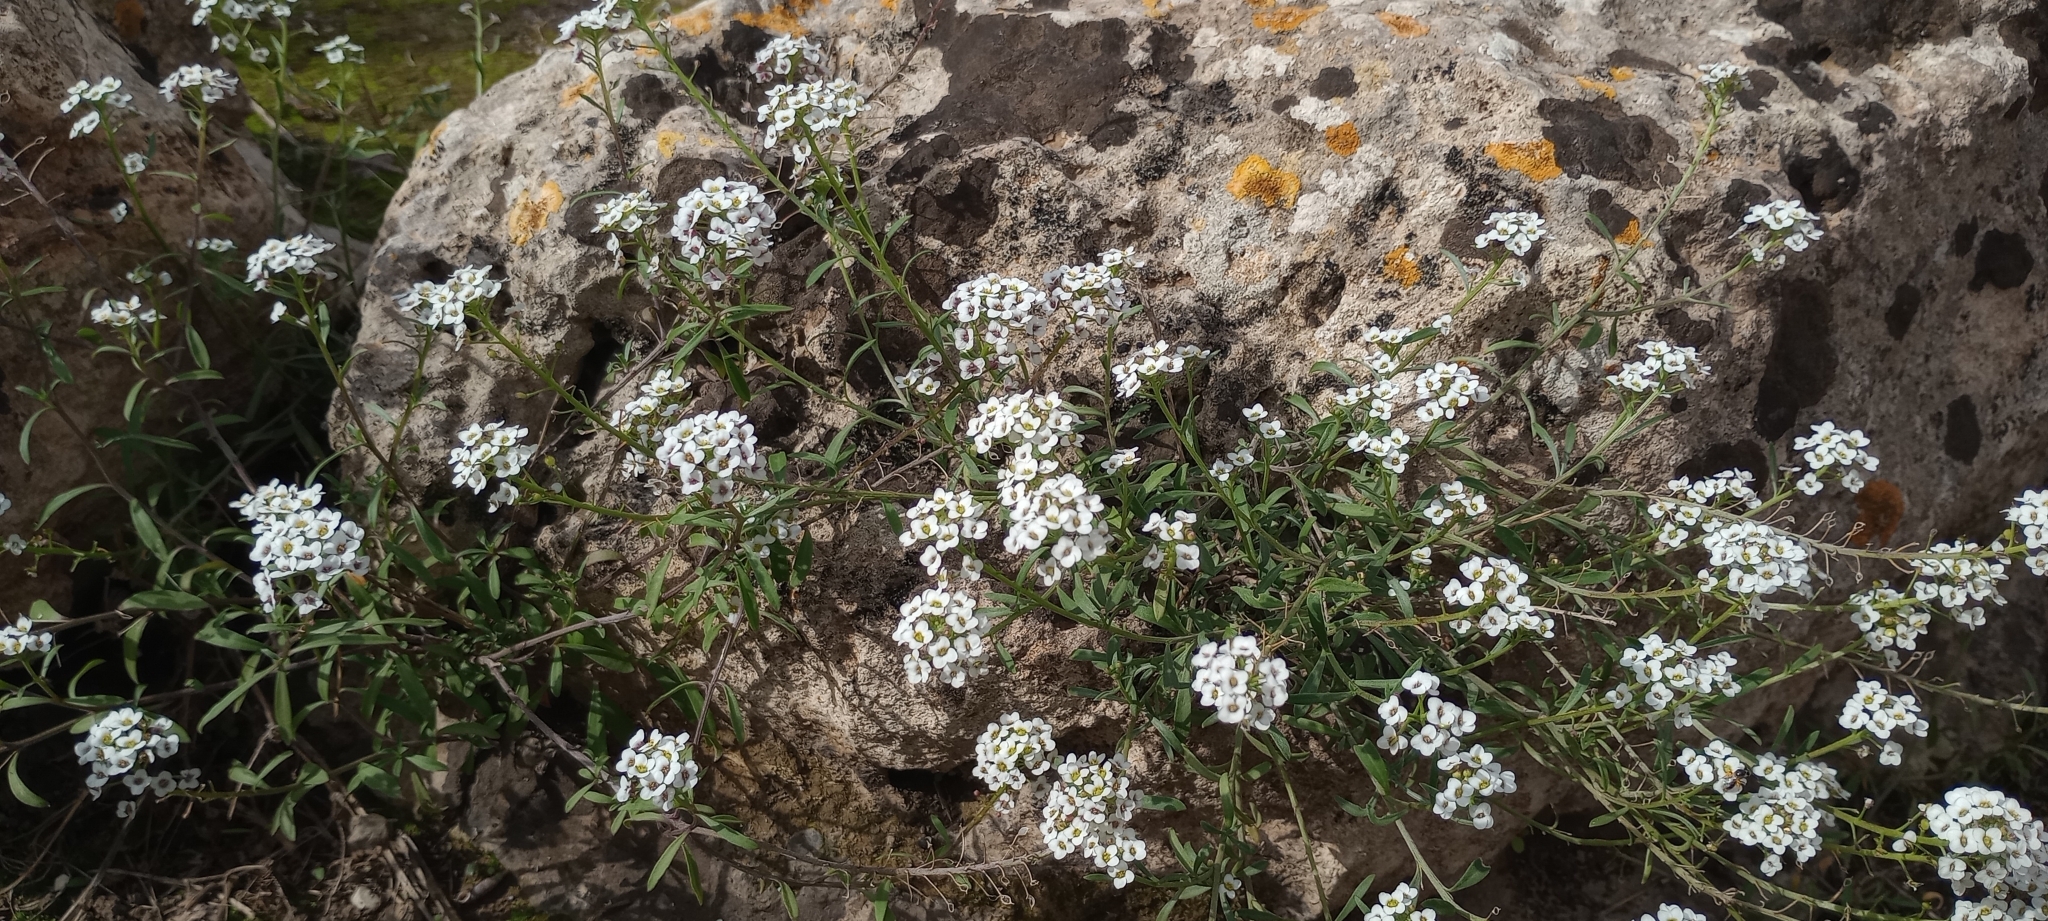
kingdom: Plantae
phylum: Tracheophyta
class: Magnoliopsida
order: Brassicales
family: Brassicaceae
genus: Lobularia
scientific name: Lobularia maritima
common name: Sweet alison
